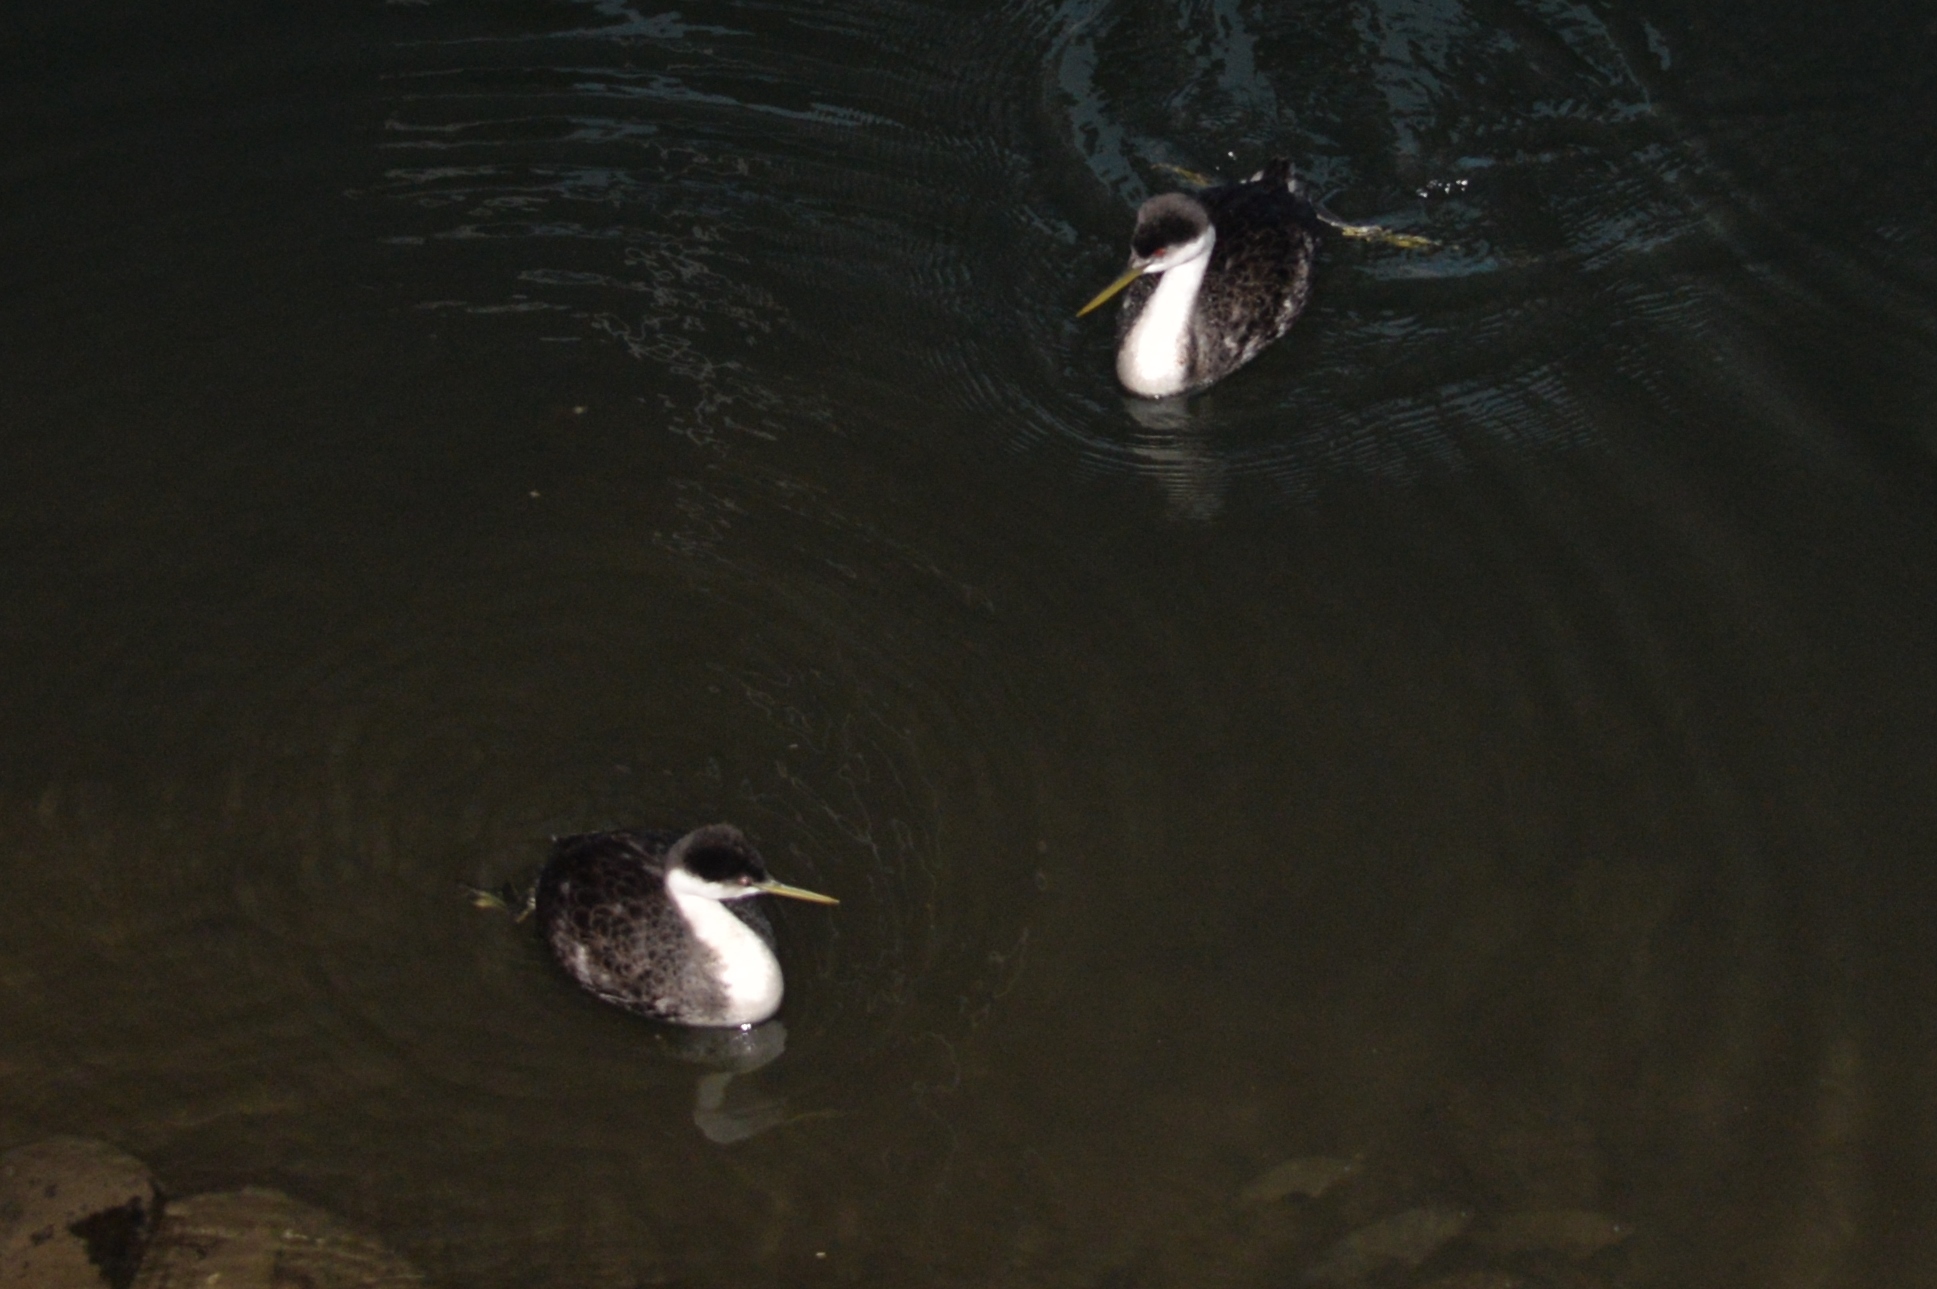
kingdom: Animalia
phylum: Chordata
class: Aves
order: Podicipediformes
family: Podicipedidae
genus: Aechmophorus
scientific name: Aechmophorus occidentalis
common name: Western grebe
